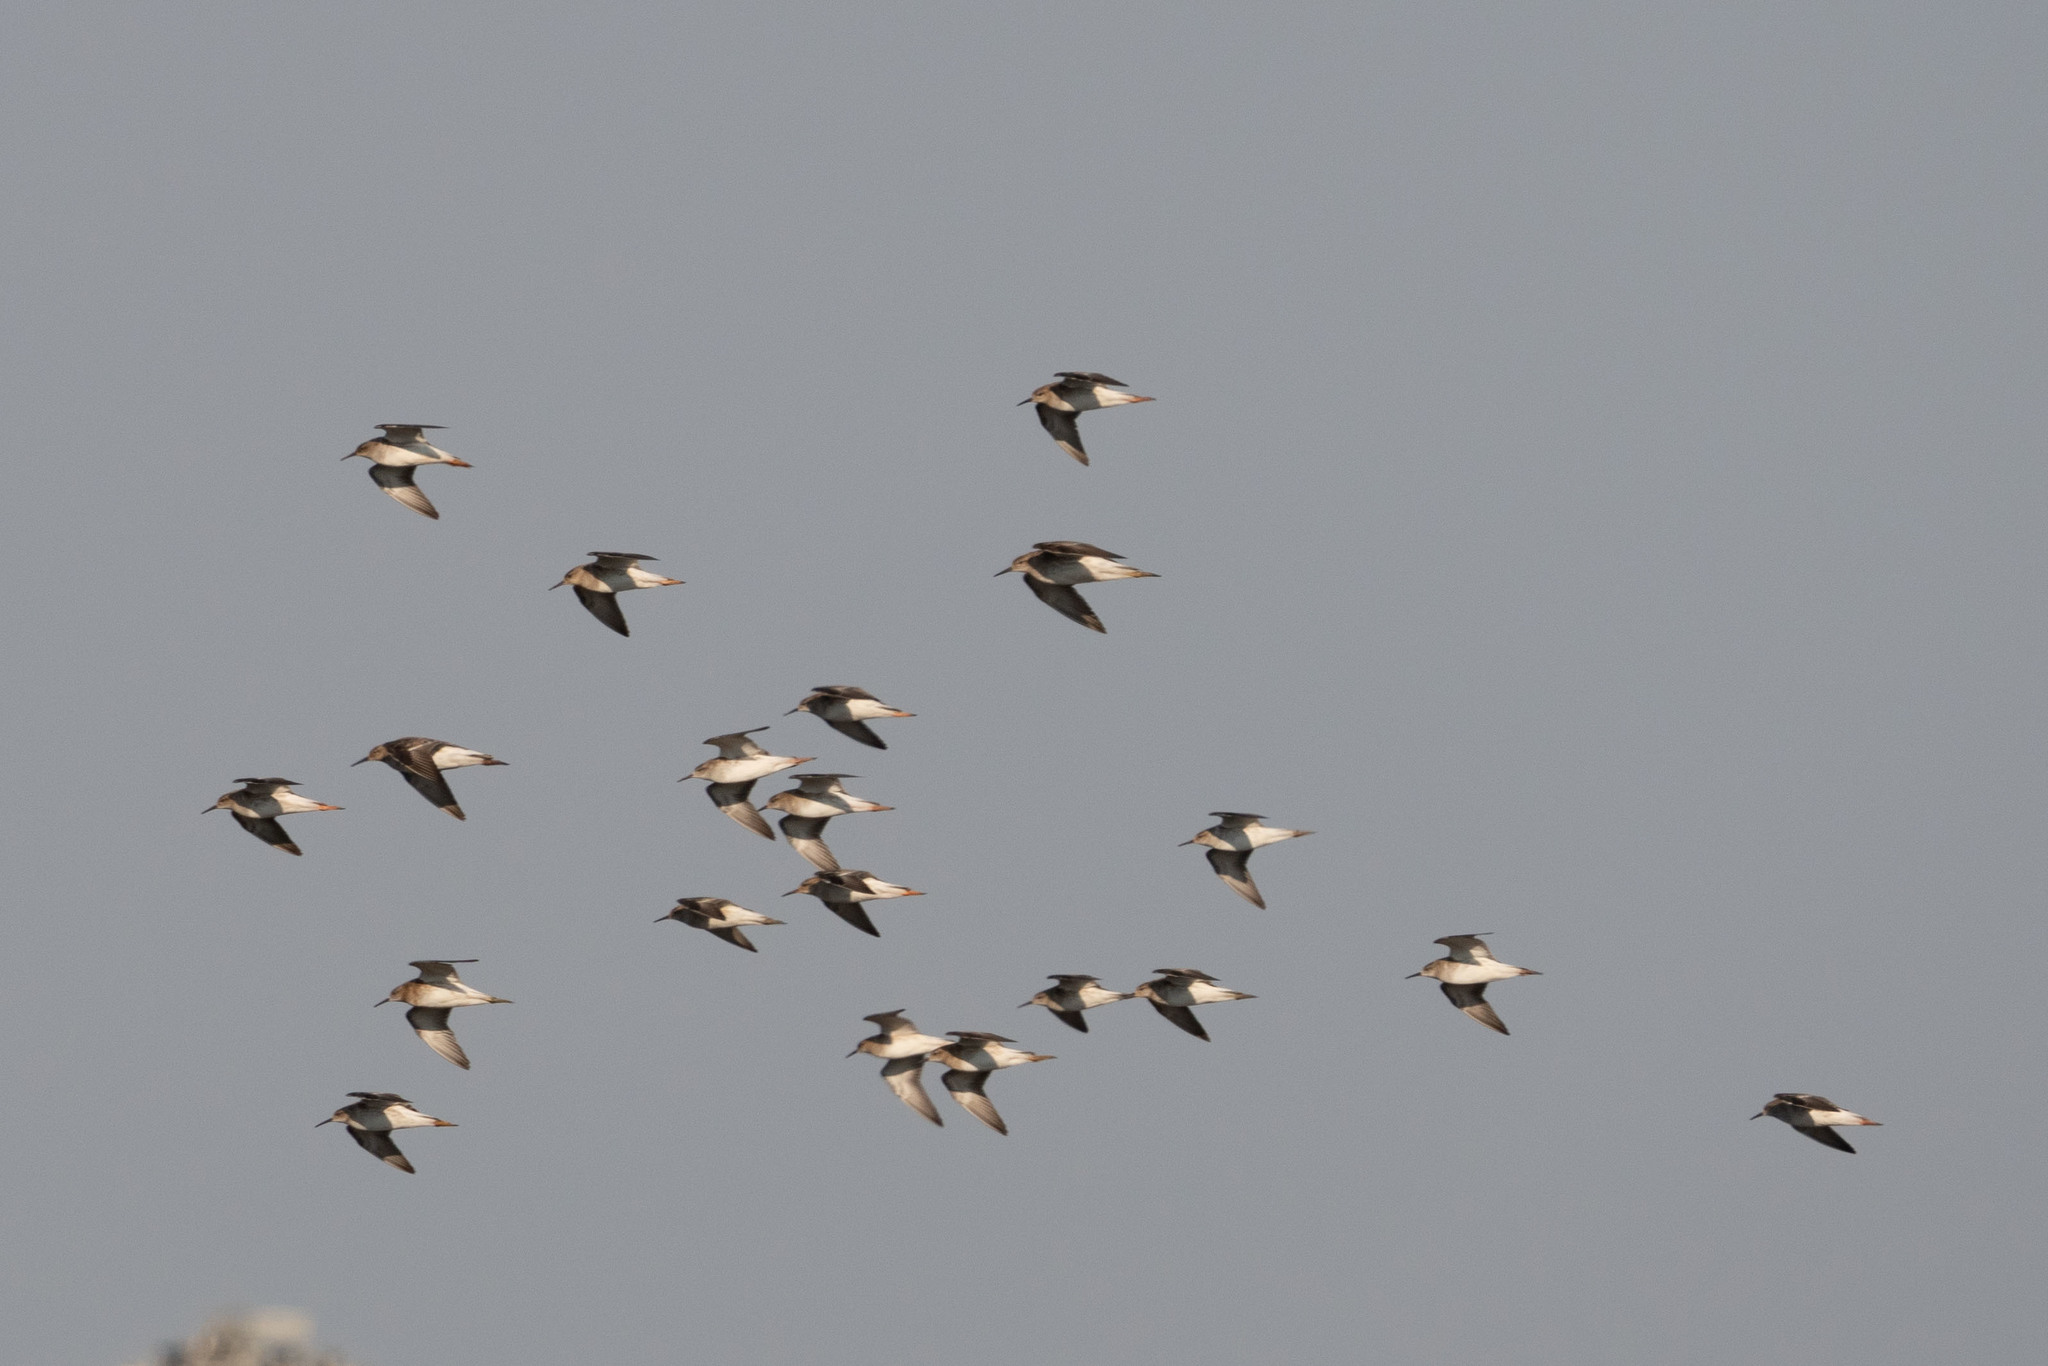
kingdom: Animalia
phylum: Chordata
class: Aves
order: Charadriiformes
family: Scolopacidae
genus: Calidris
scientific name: Calidris pugnax
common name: Ruff
